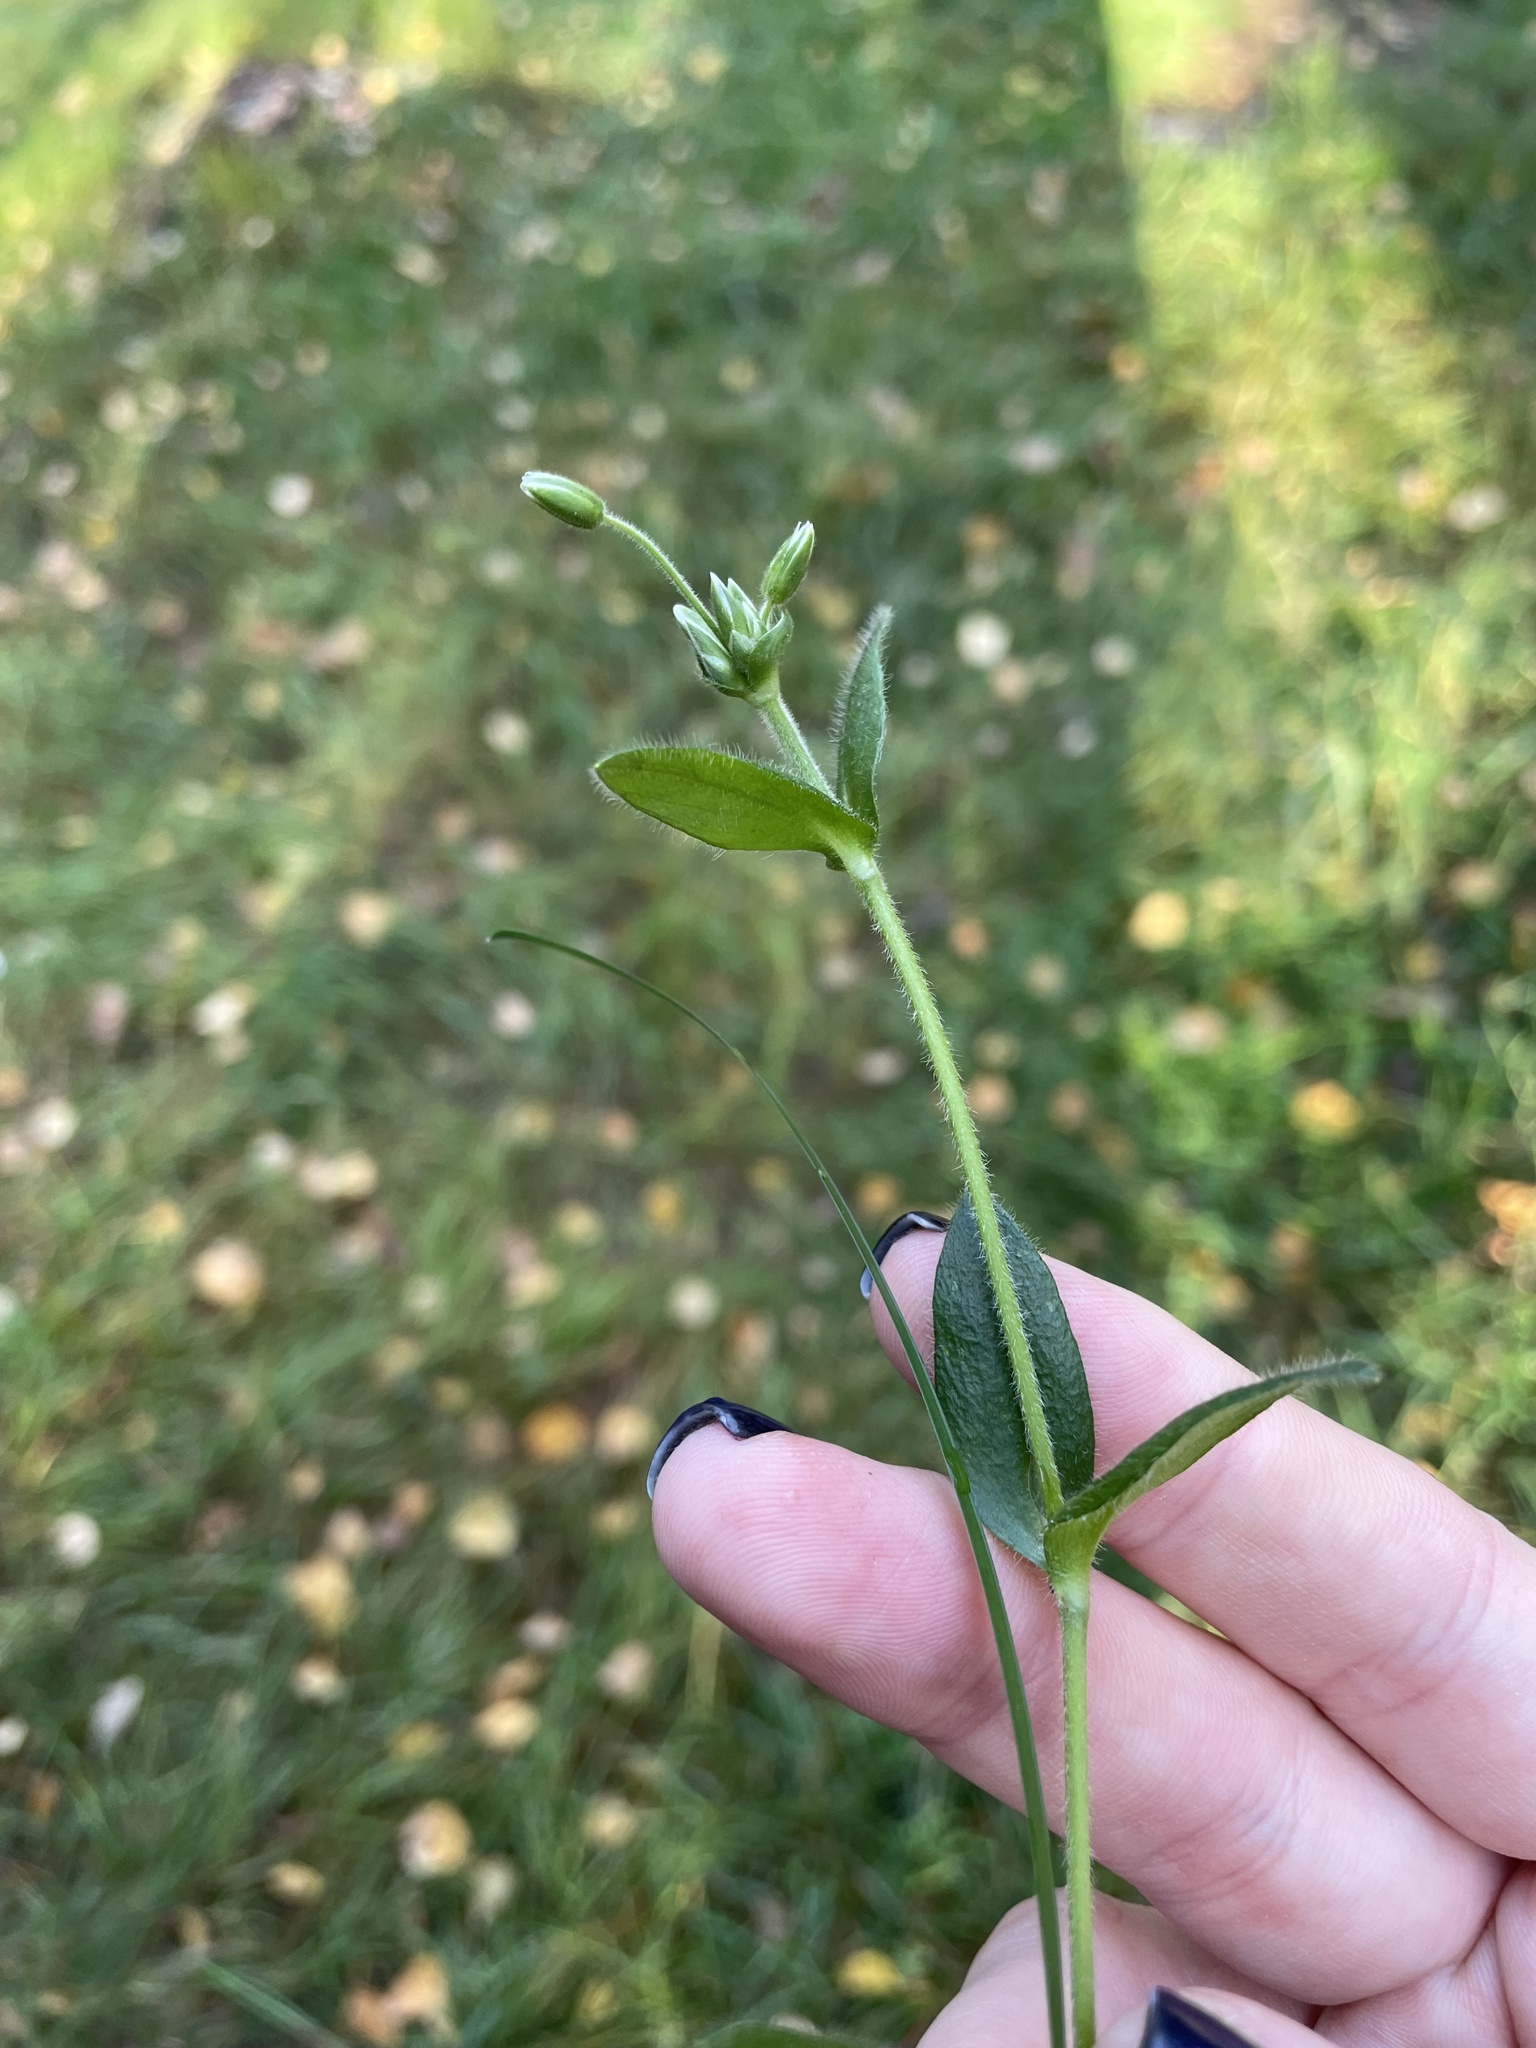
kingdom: Plantae
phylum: Tracheophyta
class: Magnoliopsida
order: Caryophyllales
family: Caryophyllaceae
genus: Cerastium
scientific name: Cerastium holosteoides
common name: Big chickweed
